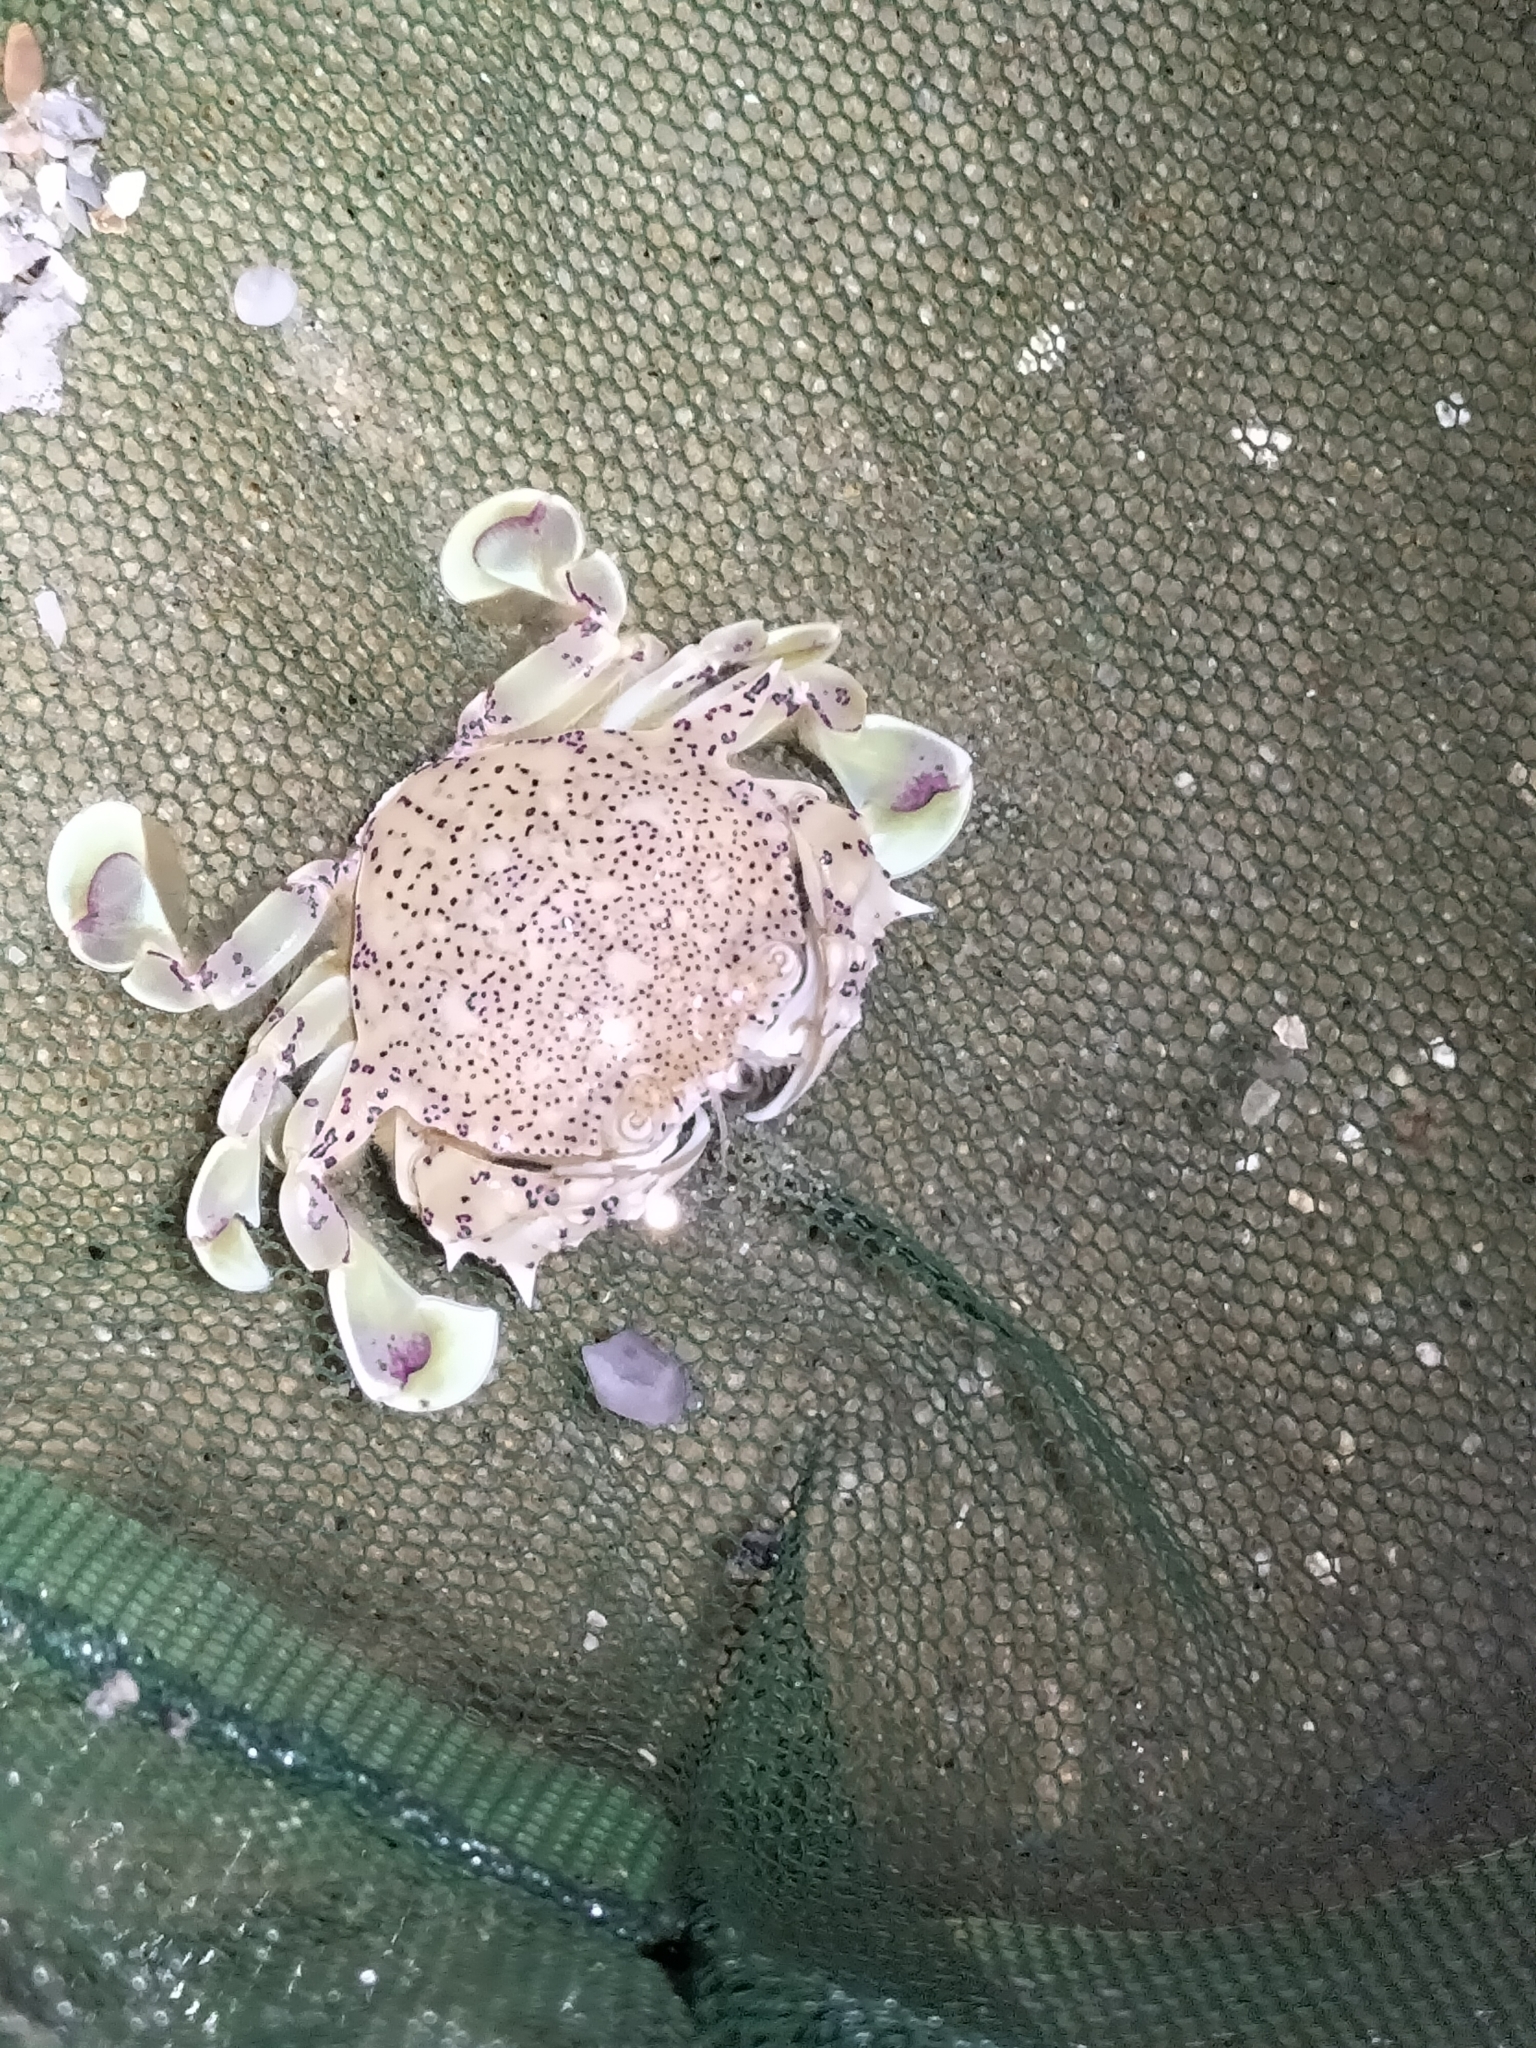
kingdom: Animalia
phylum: Arthropoda
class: Malacostraca
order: Decapoda
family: Matutidae
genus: Matuta
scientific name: Matuta victor
